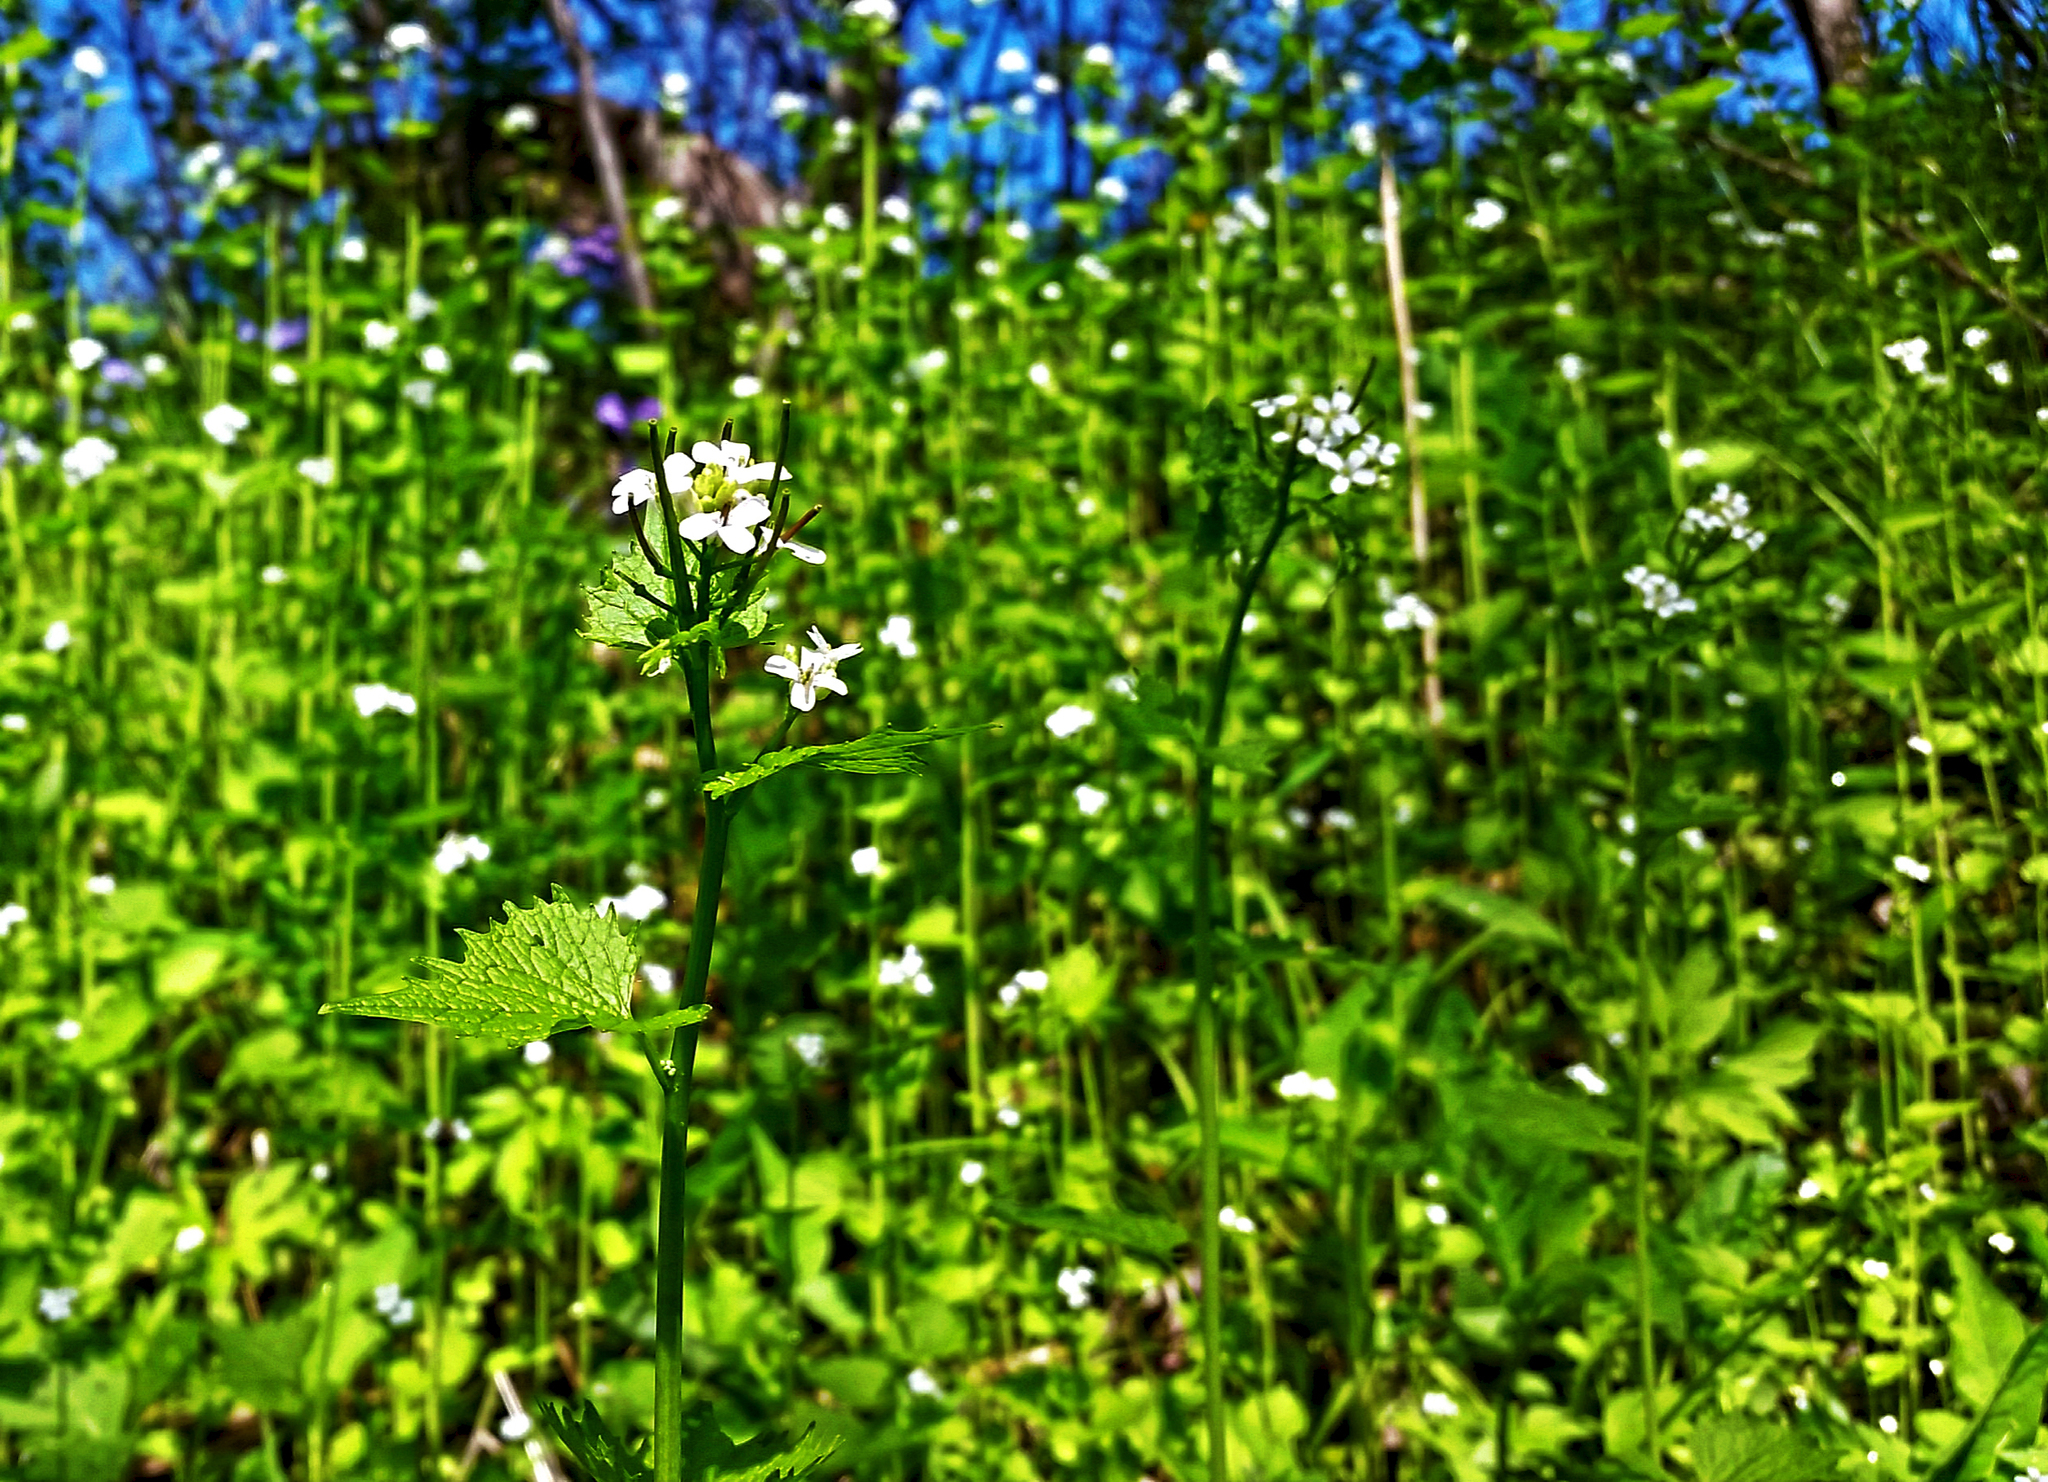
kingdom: Plantae
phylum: Tracheophyta
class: Magnoliopsida
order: Brassicales
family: Brassicaceae
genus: Alliaria
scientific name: Alliaria petiolata
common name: Garlic mustard
